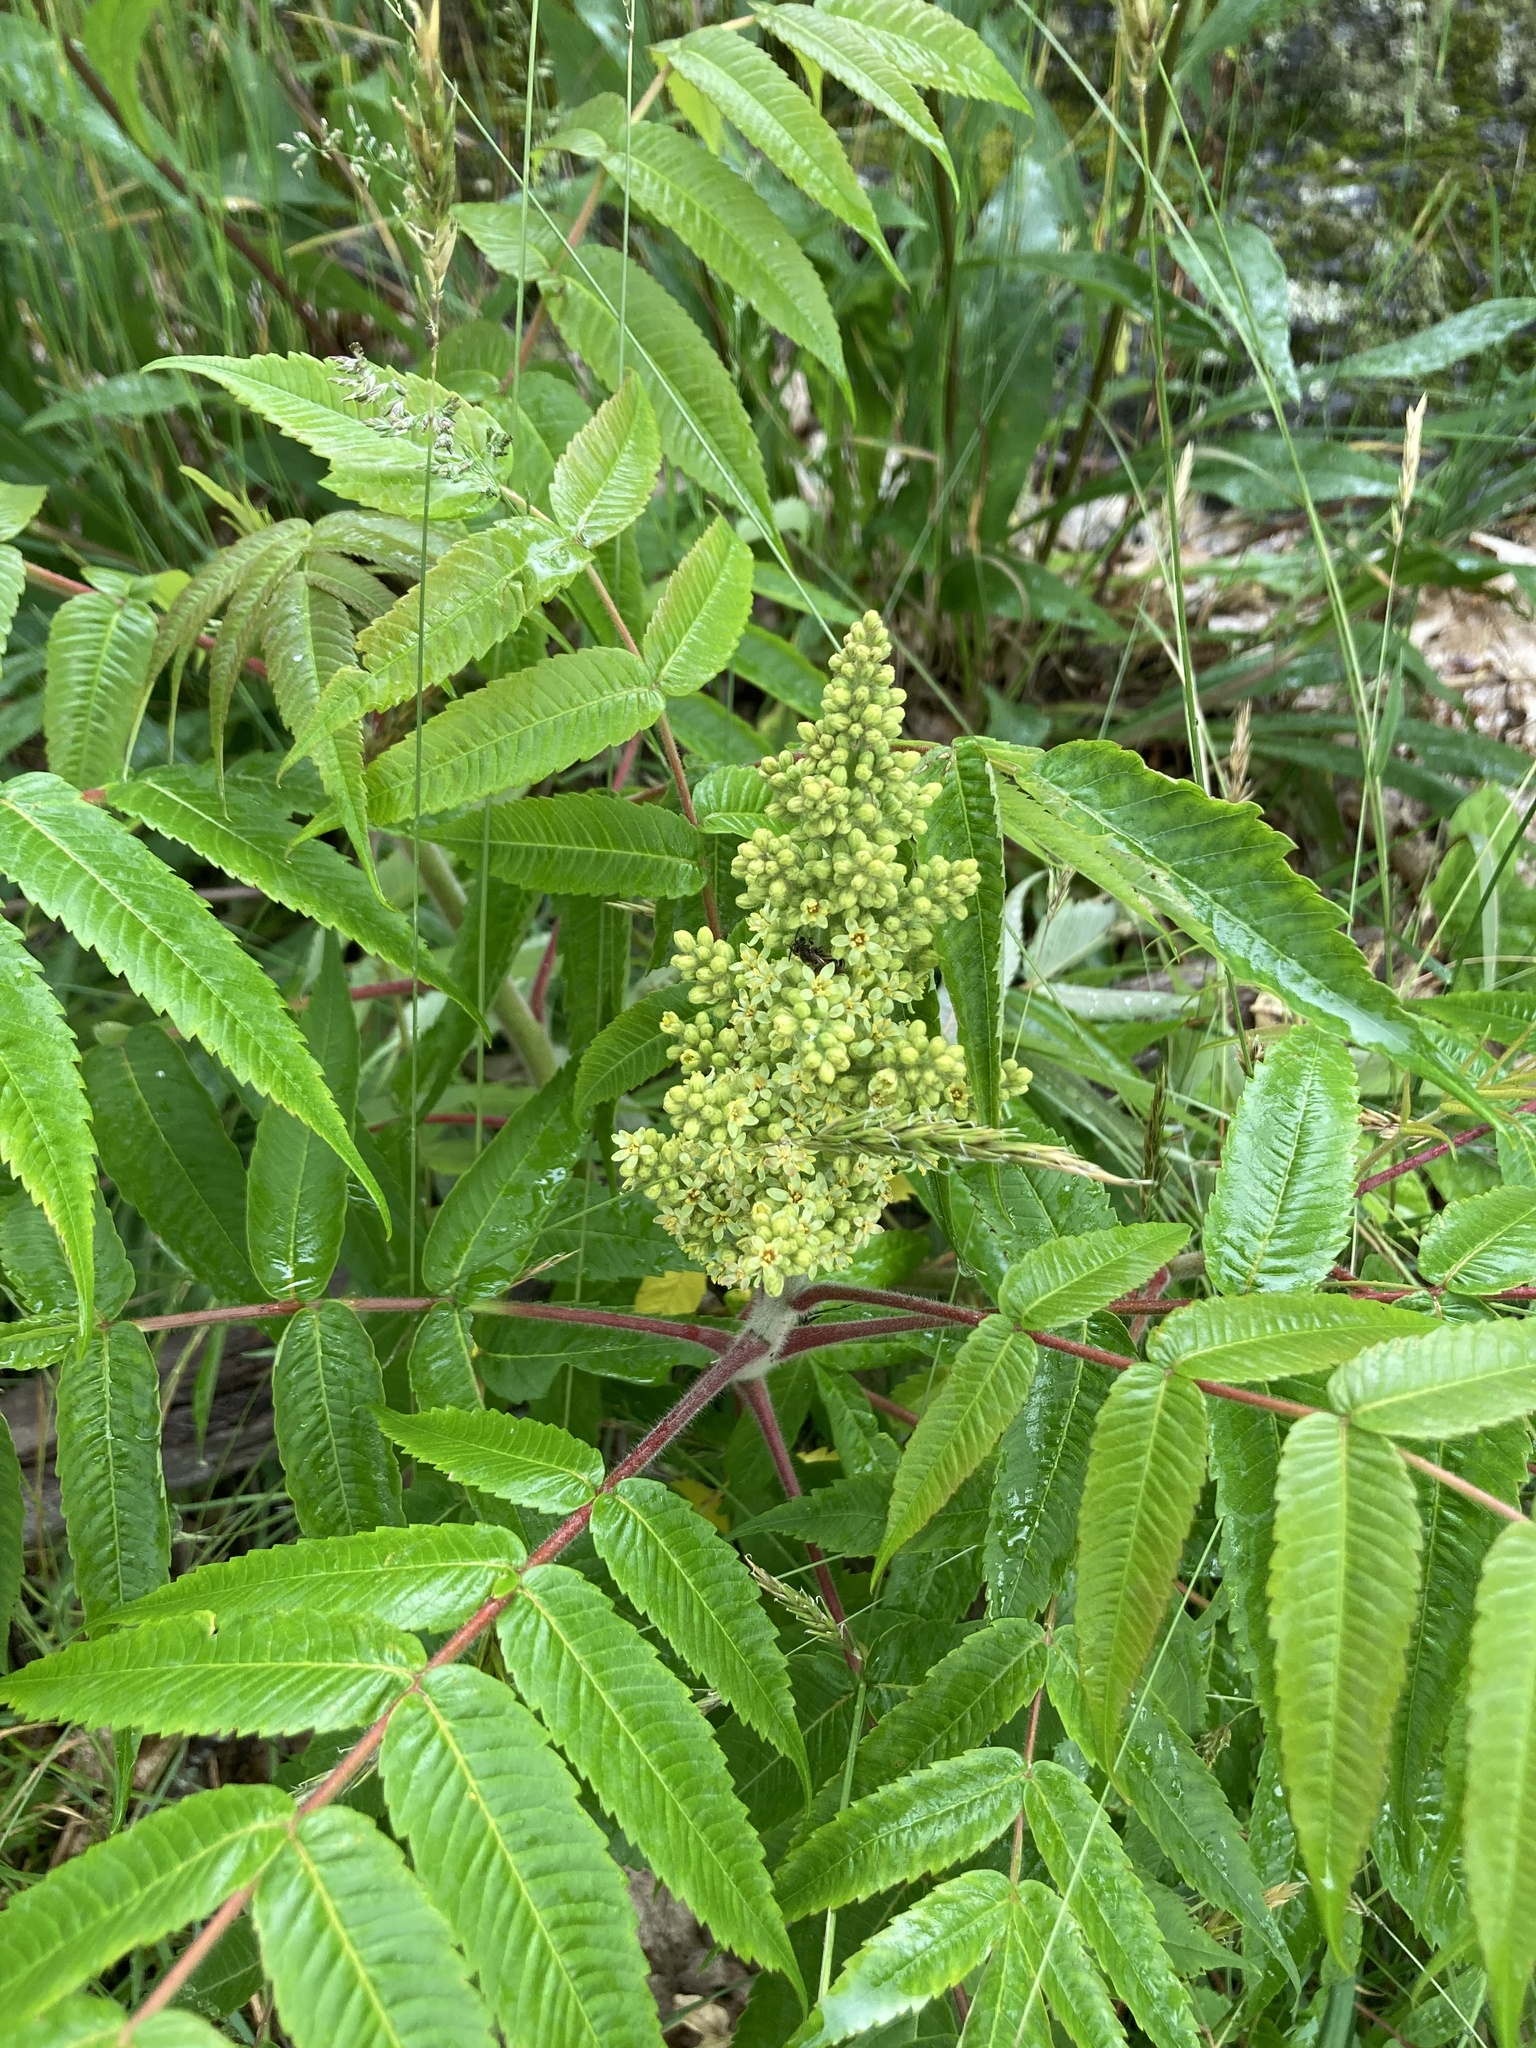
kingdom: Plantae
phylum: Tracheophyta
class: Magnoliopsida
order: Sapindales
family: Anacardiaceae
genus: Rhus
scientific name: Rhus typhina
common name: Staghorn sumac
